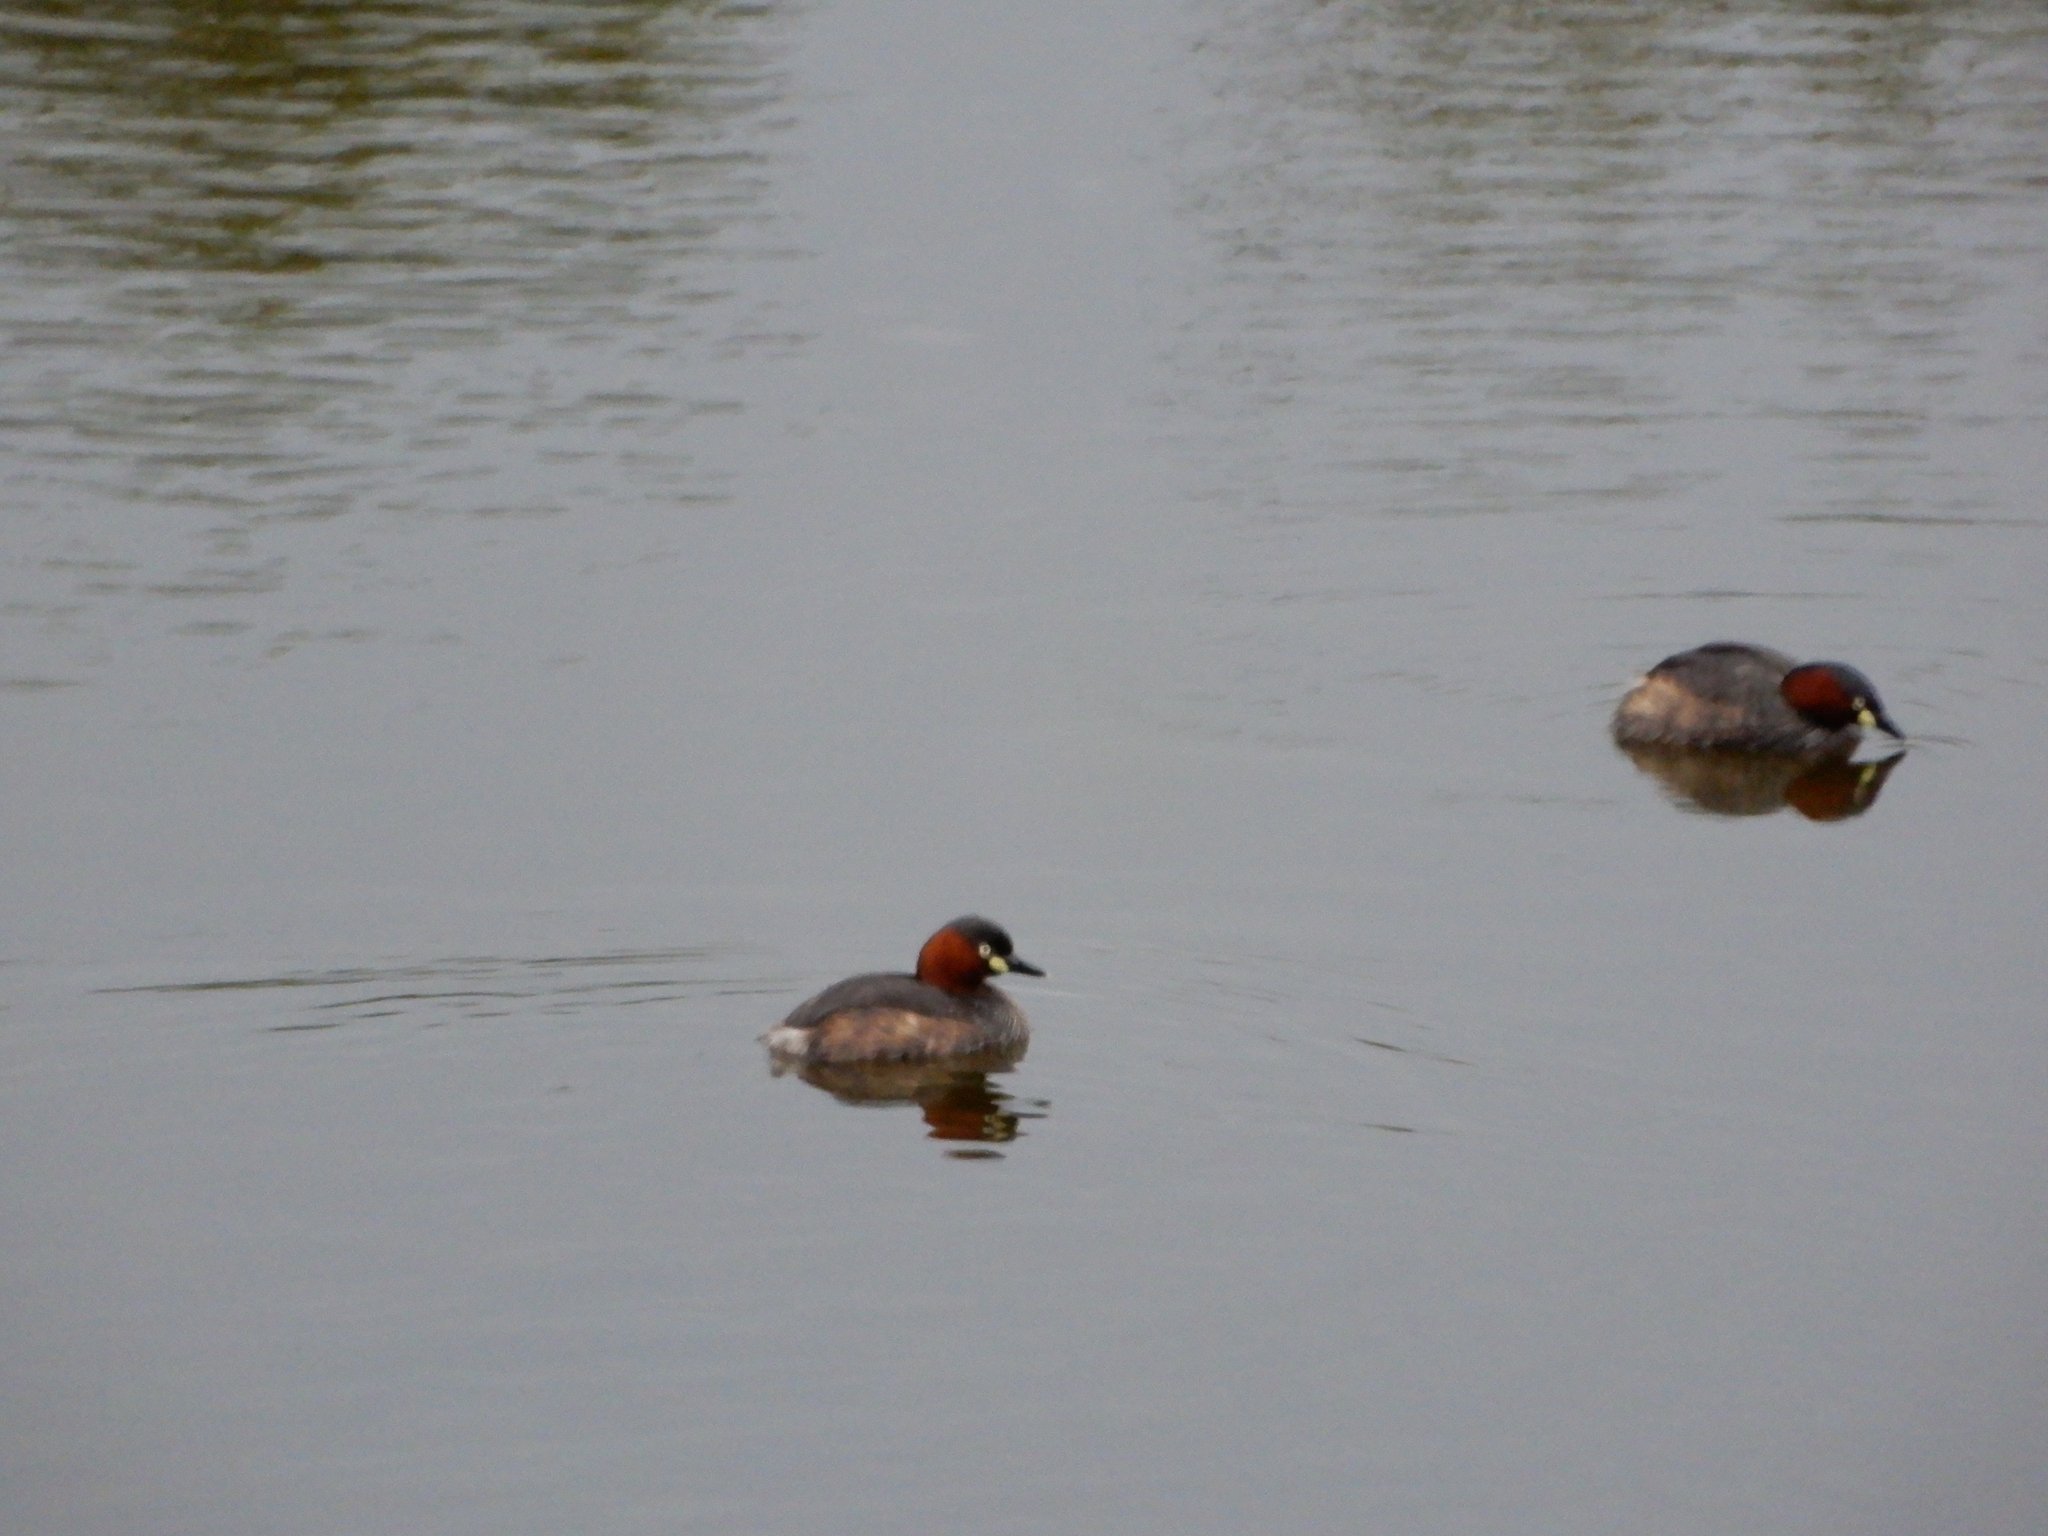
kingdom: Animalia
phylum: Chordata
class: Aves
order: Podicipediformes
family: Podicipedidae
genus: Tachybaptus
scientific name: Tachybaptus ruficollis
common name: Little grebe
